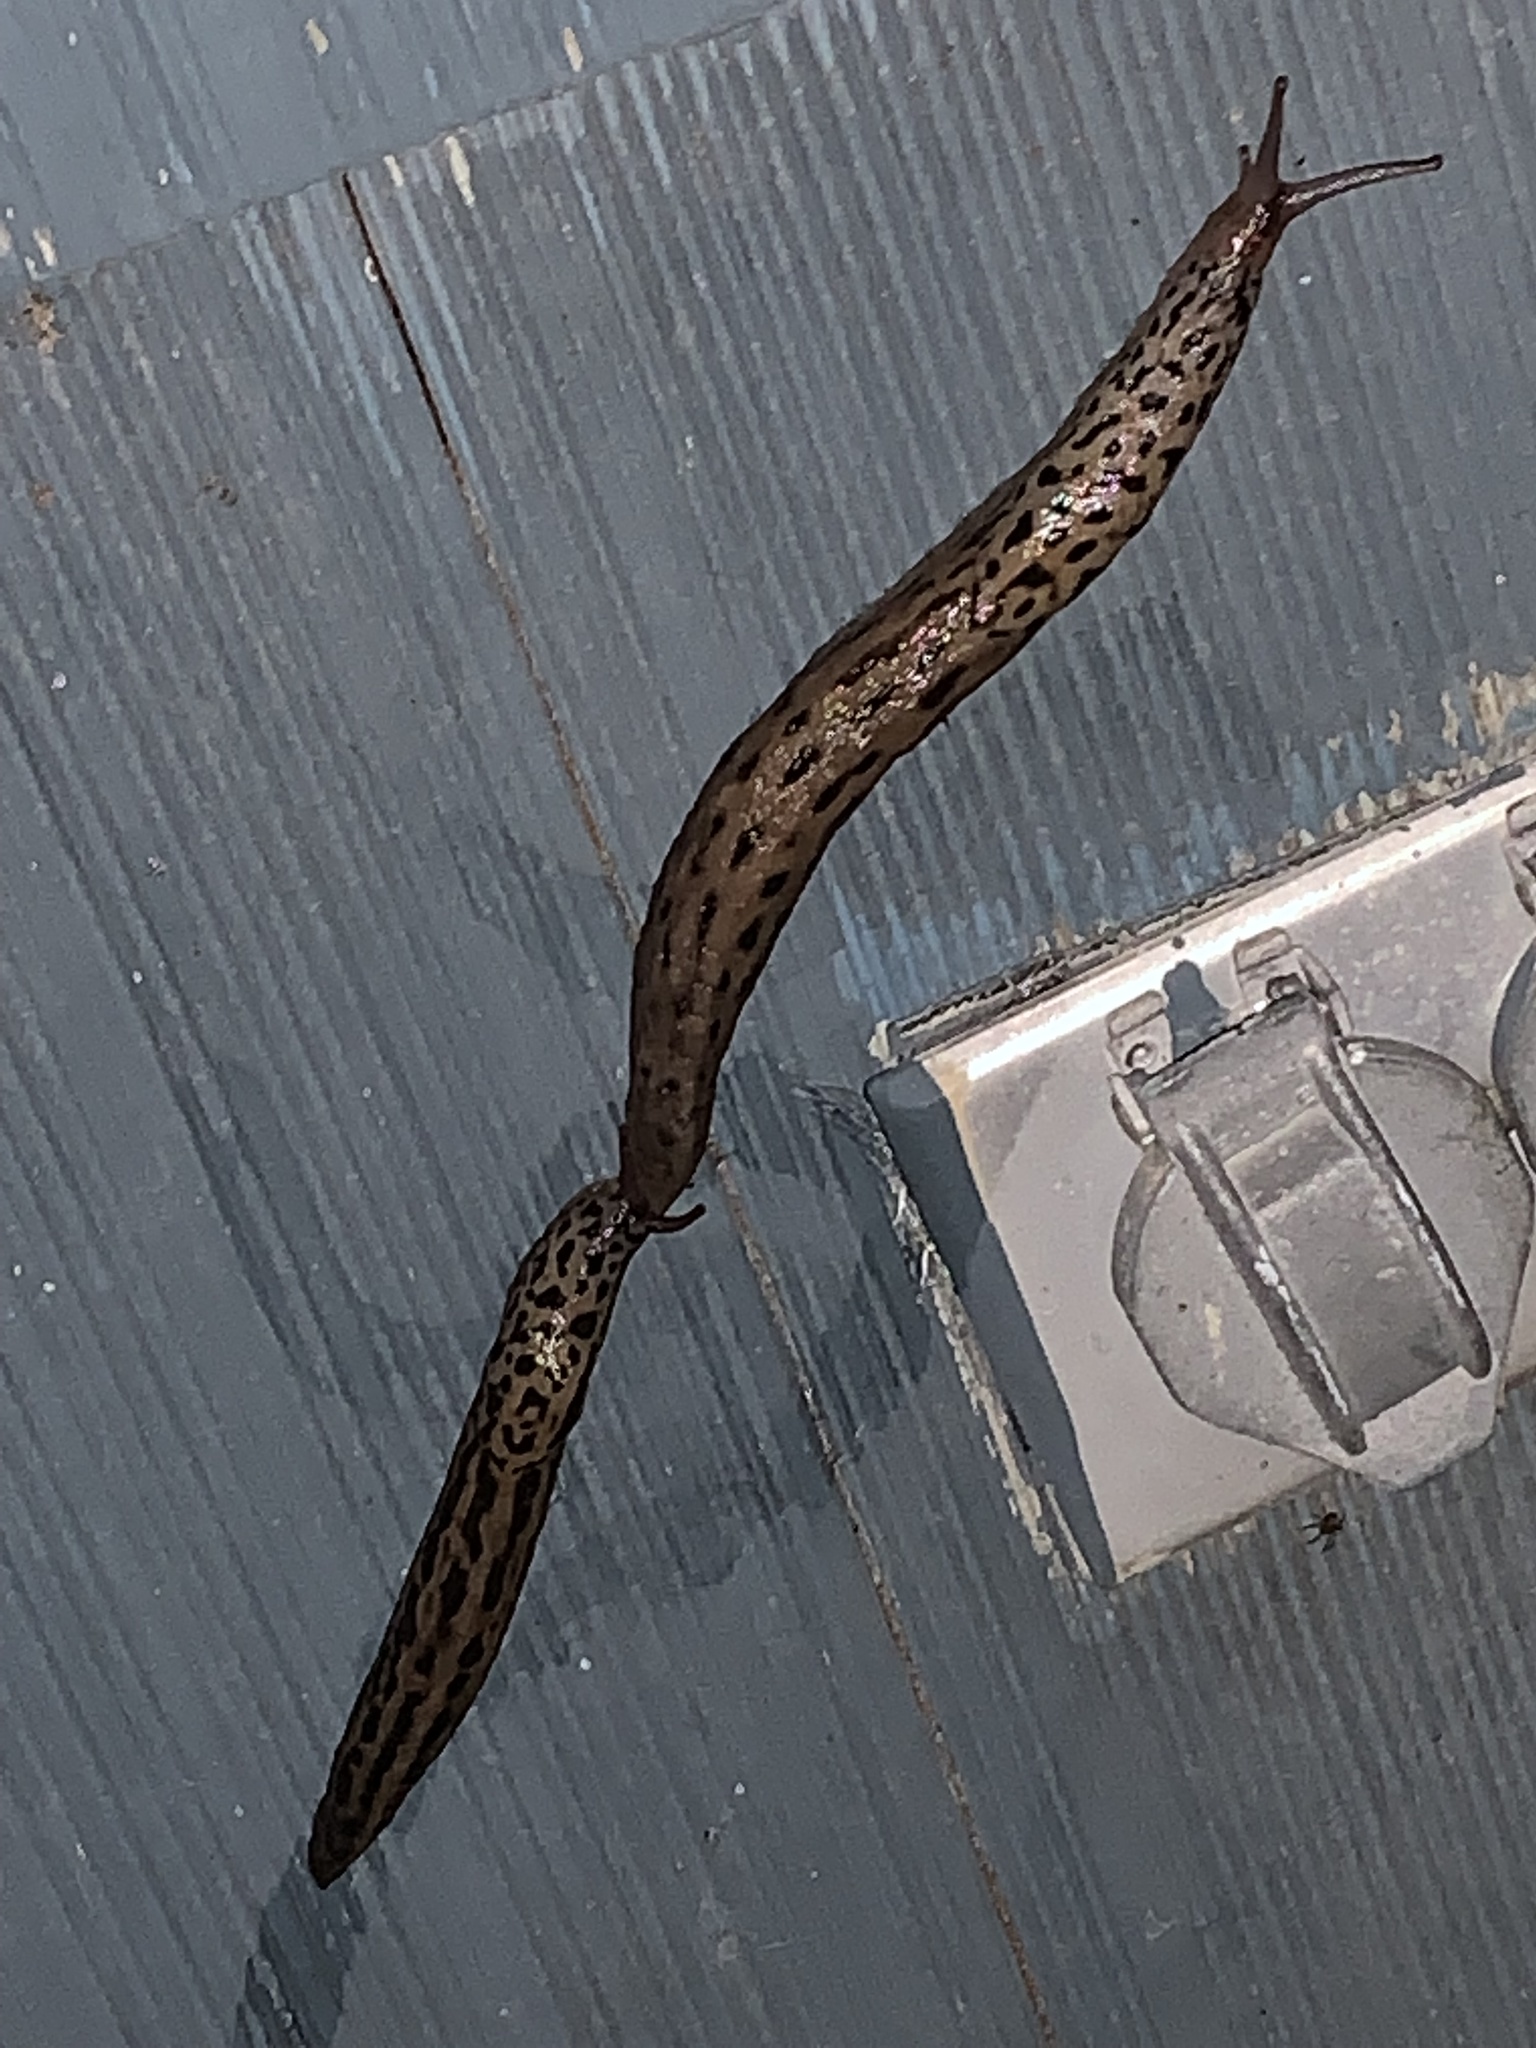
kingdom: Animalia
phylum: Mollusca
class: Gastropoda
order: Stylommatophora
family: Limacidae
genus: Limax
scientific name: Limax maximus
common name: Great grey slug
